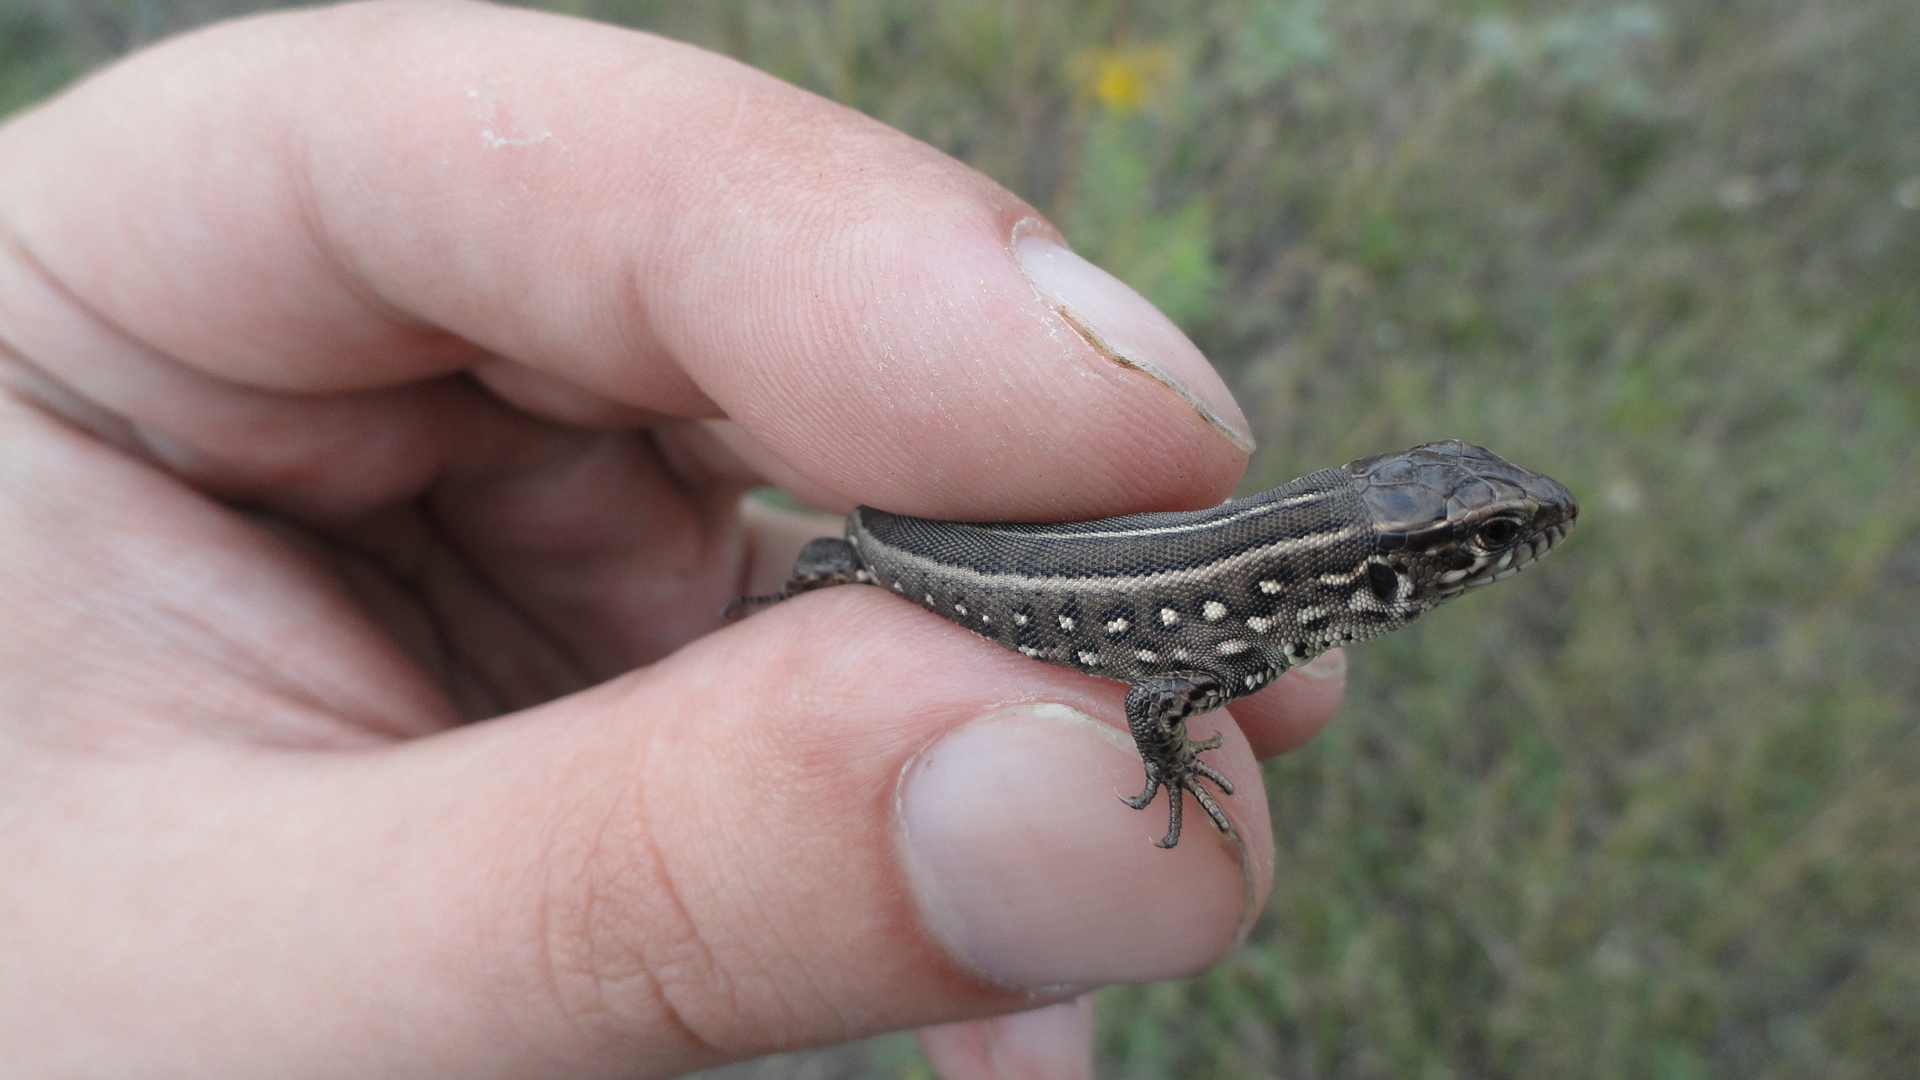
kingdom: Animalia
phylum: Chordata
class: Squamata
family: Lacertidae
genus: Lacerta
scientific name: Lacerta agilis
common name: Sand lizard
